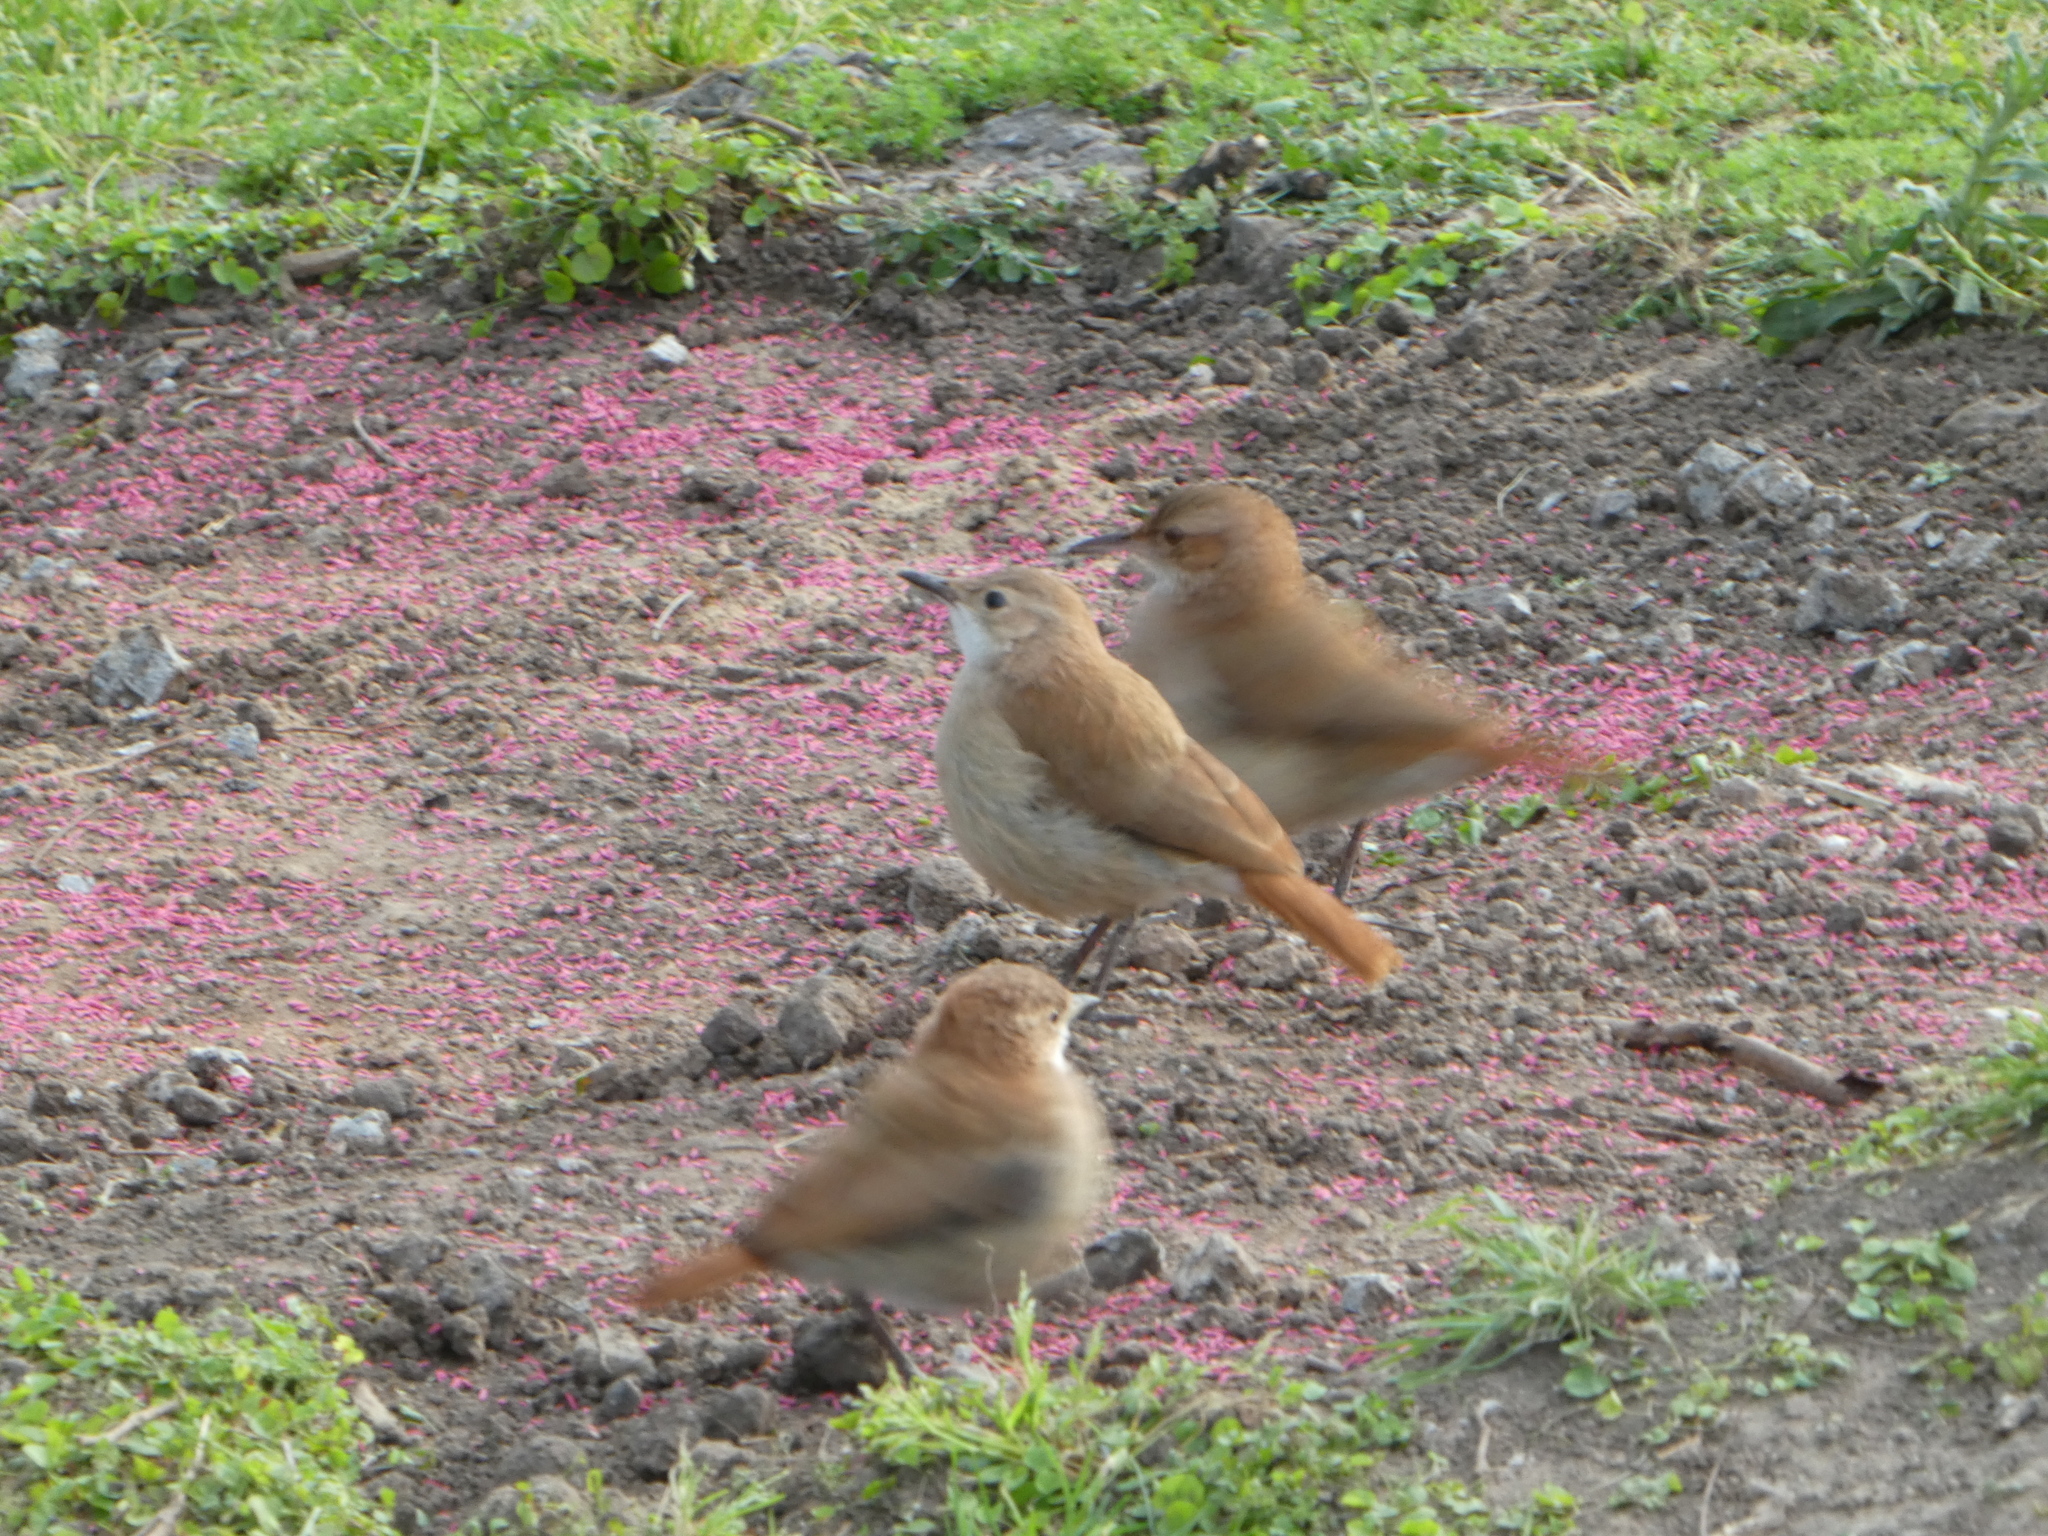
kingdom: Animalia
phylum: Chordata
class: Aves
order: Passeriformes
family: Furnariidae
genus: Furnarius
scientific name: Furnarius rufus
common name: Rufous hornero
